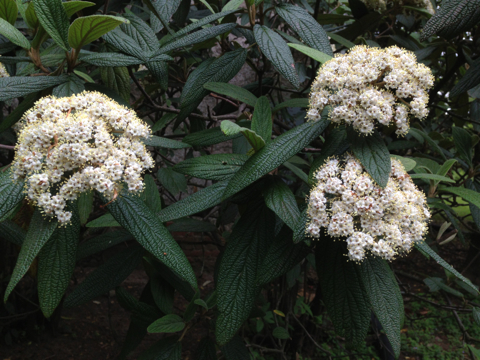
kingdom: Plantae
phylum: Tracheophyta
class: Magnoliopsida
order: Dipsacales
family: Viburnaceae
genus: Viburnum
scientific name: Viburnum rhytidophyllum
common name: Wrinkled viburnum
